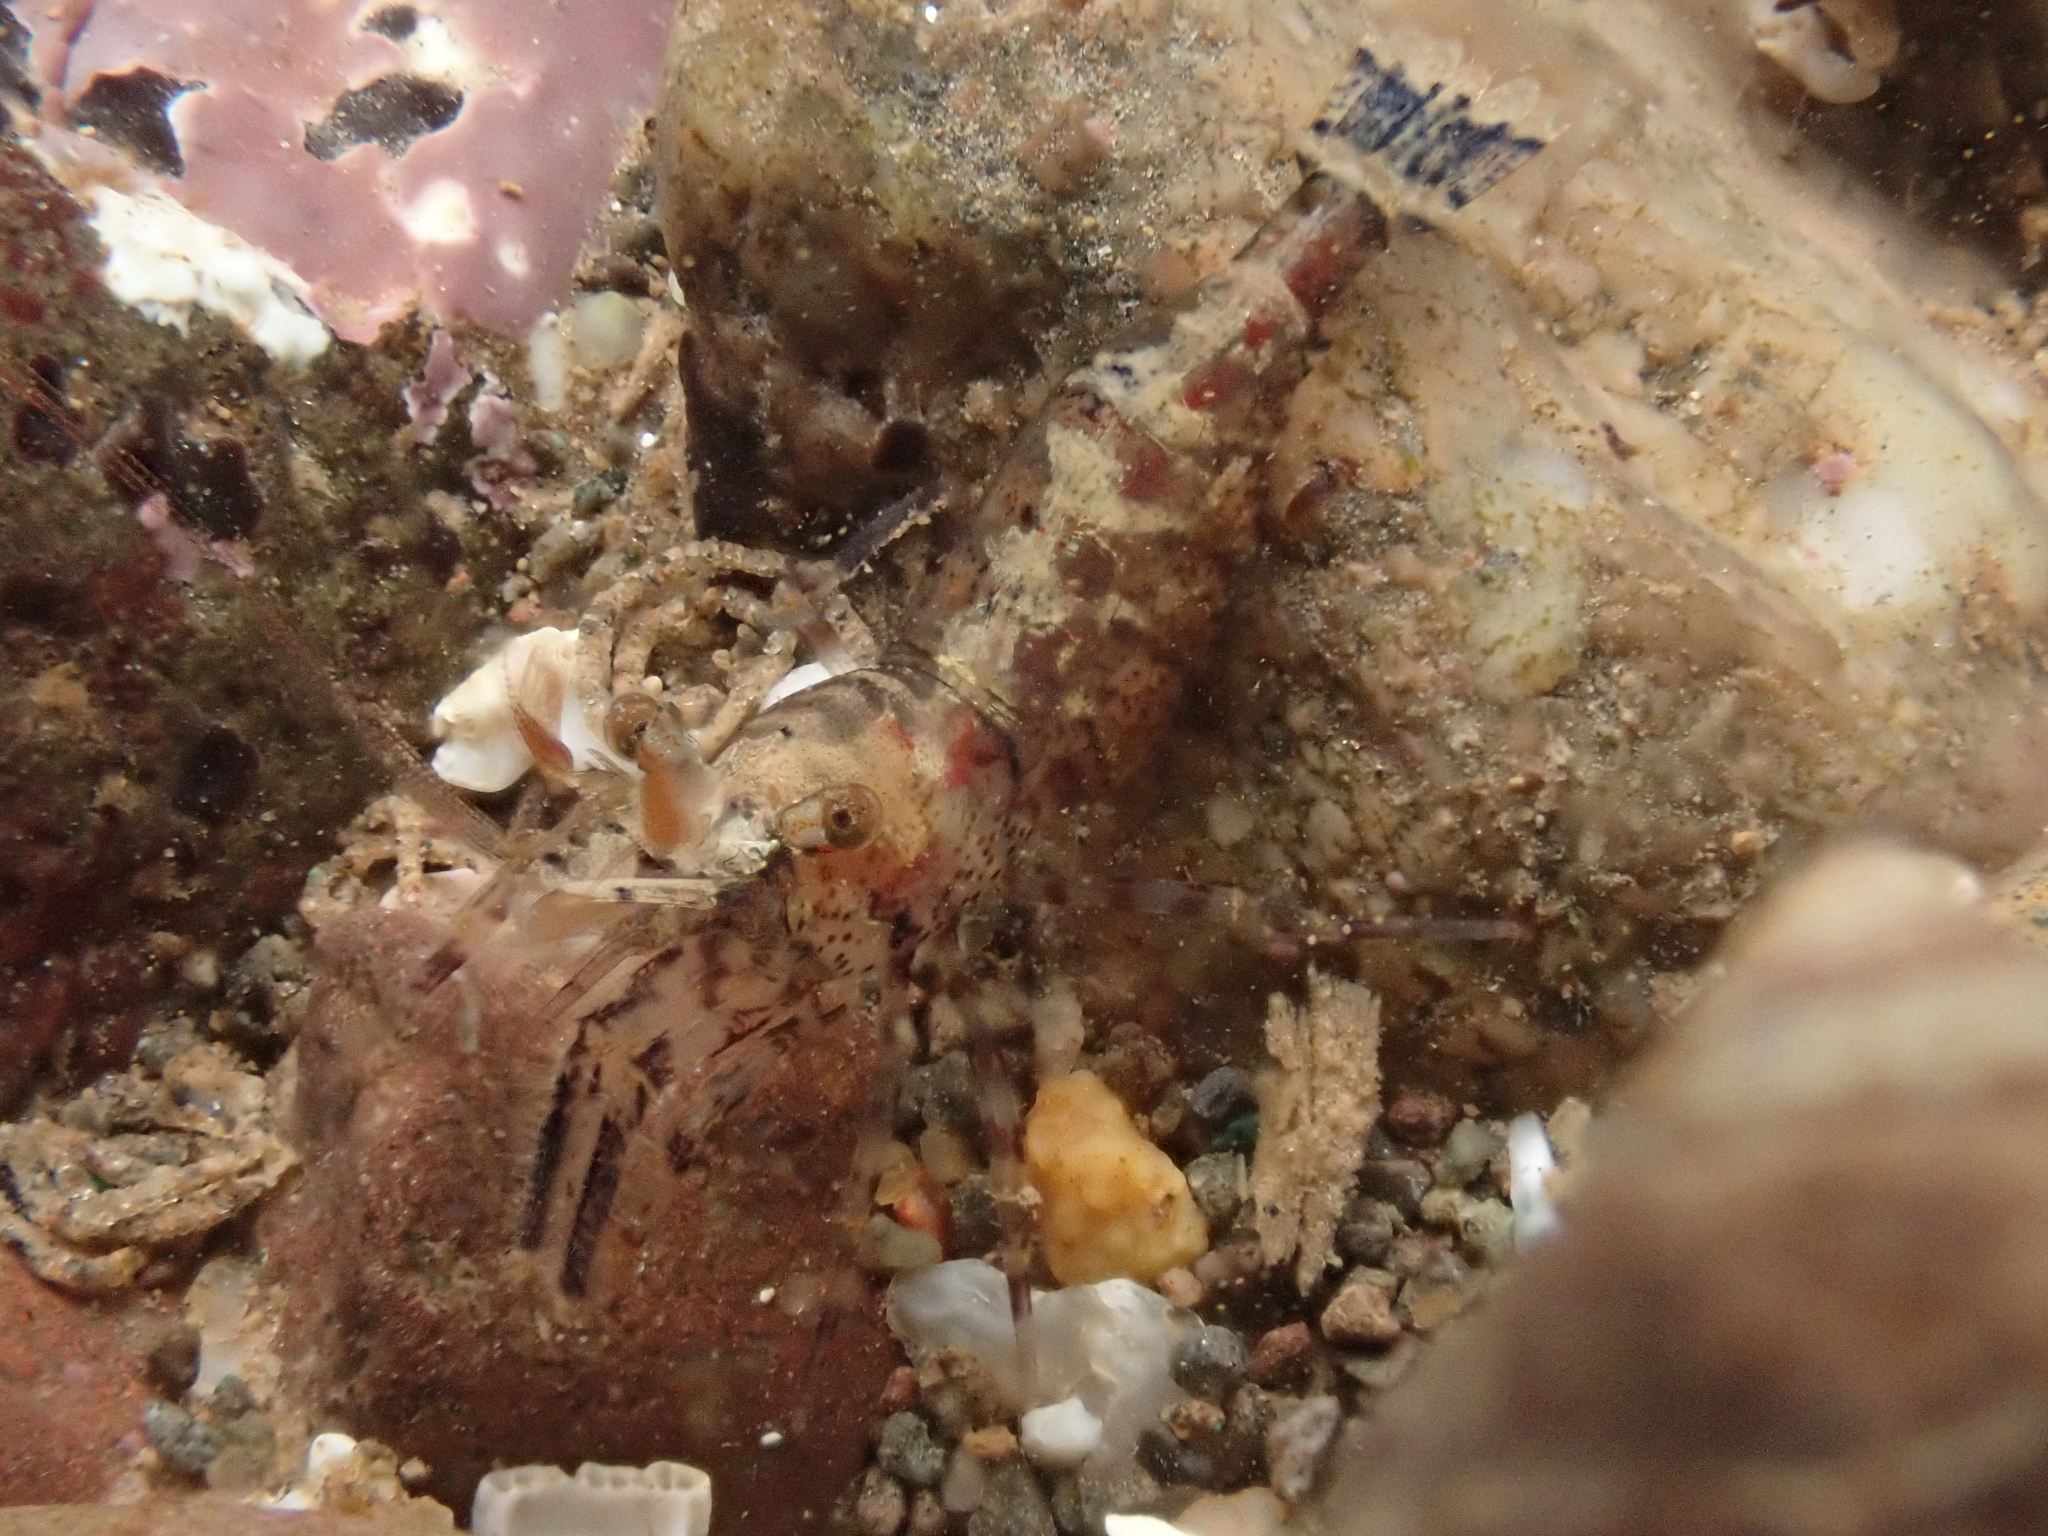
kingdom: Animalia
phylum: Arthropoda
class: Malacostraca
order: Decapoda
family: Thoridae
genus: Eualus
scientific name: Eualus pusiolus
